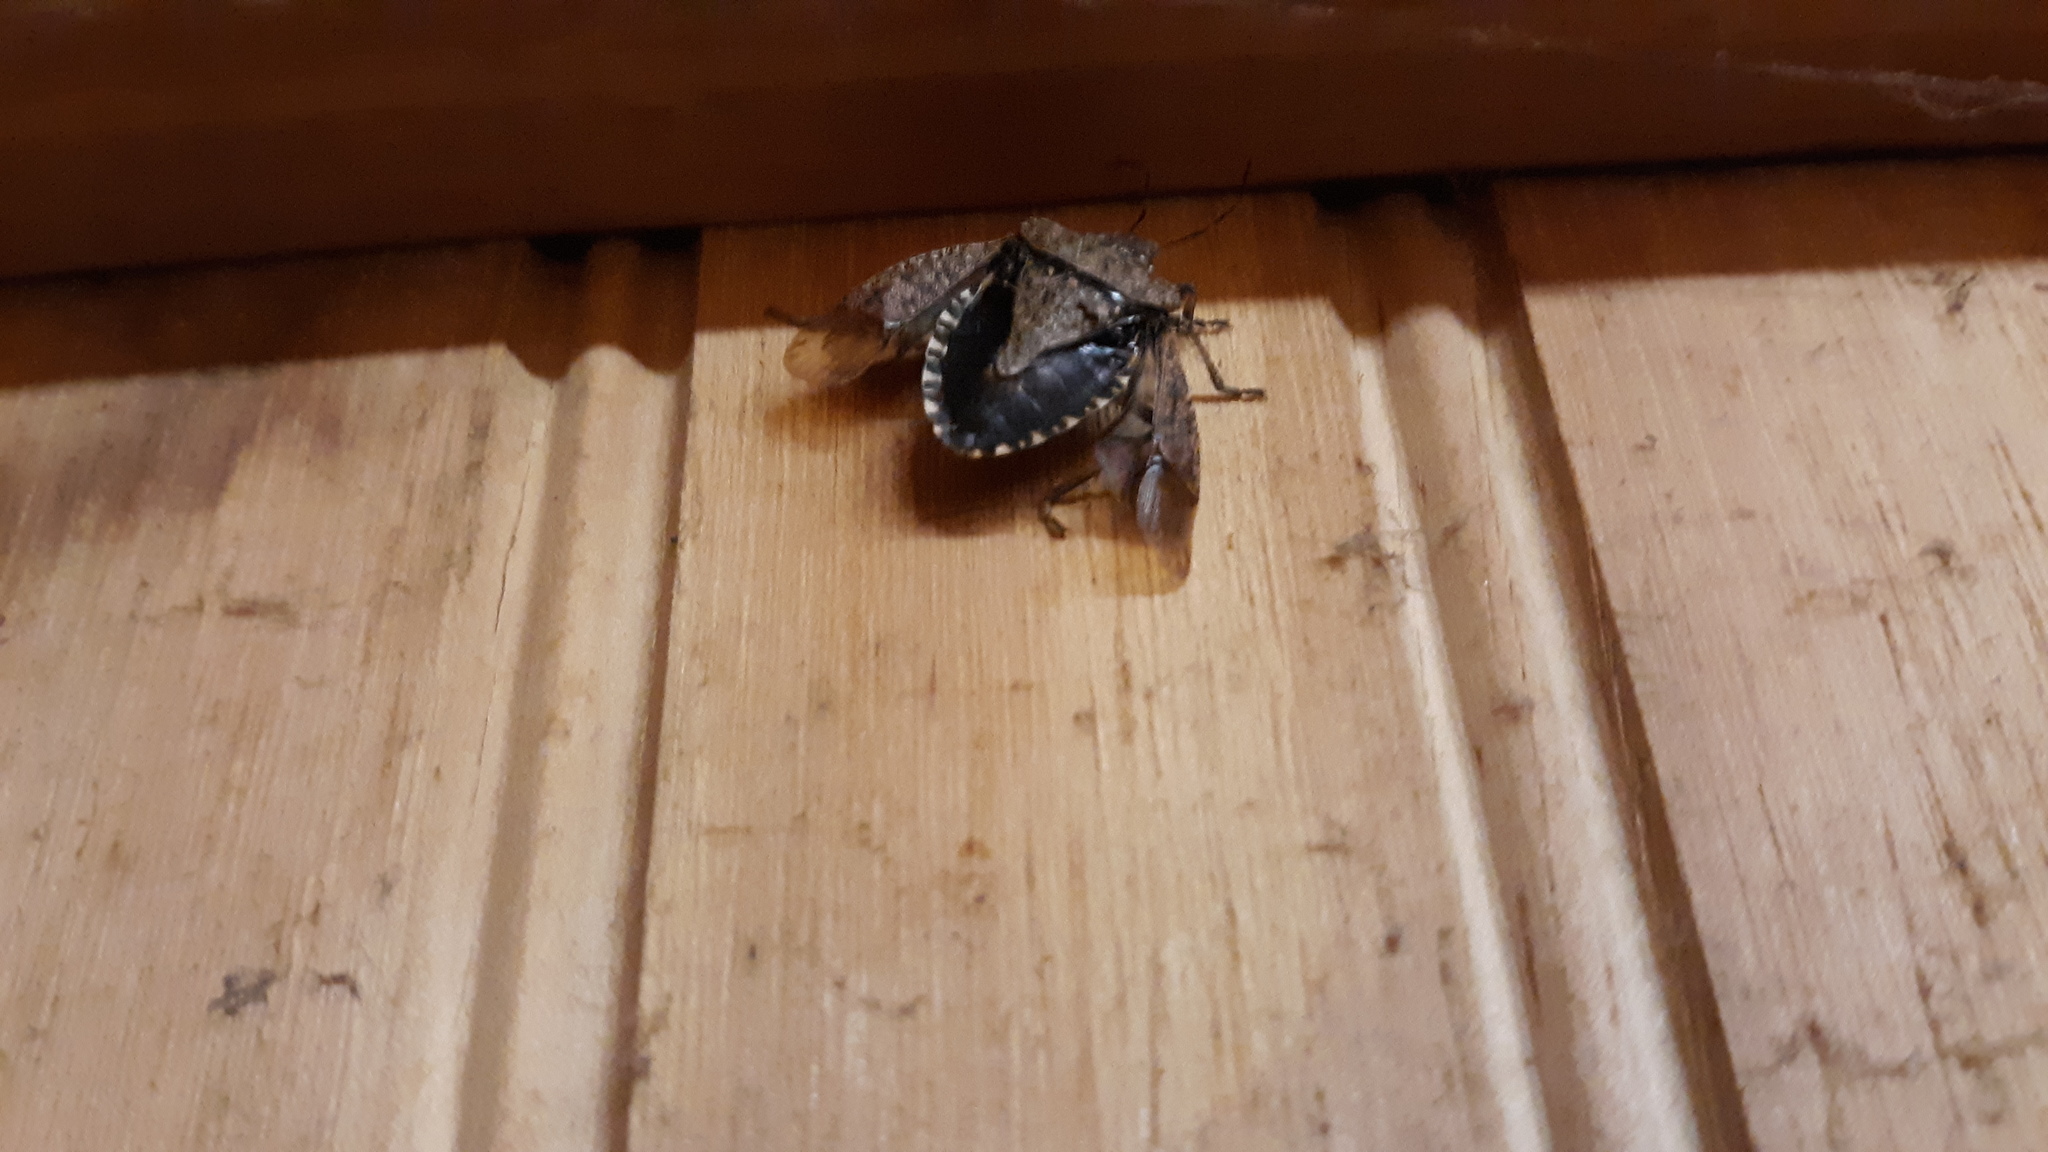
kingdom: Animalia
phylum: Arthropoda
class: Insecta
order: Hemiptera
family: Pentatomidae
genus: Halyomorpha
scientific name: Halyomorpha halys
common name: Brown marmorated stink bug
